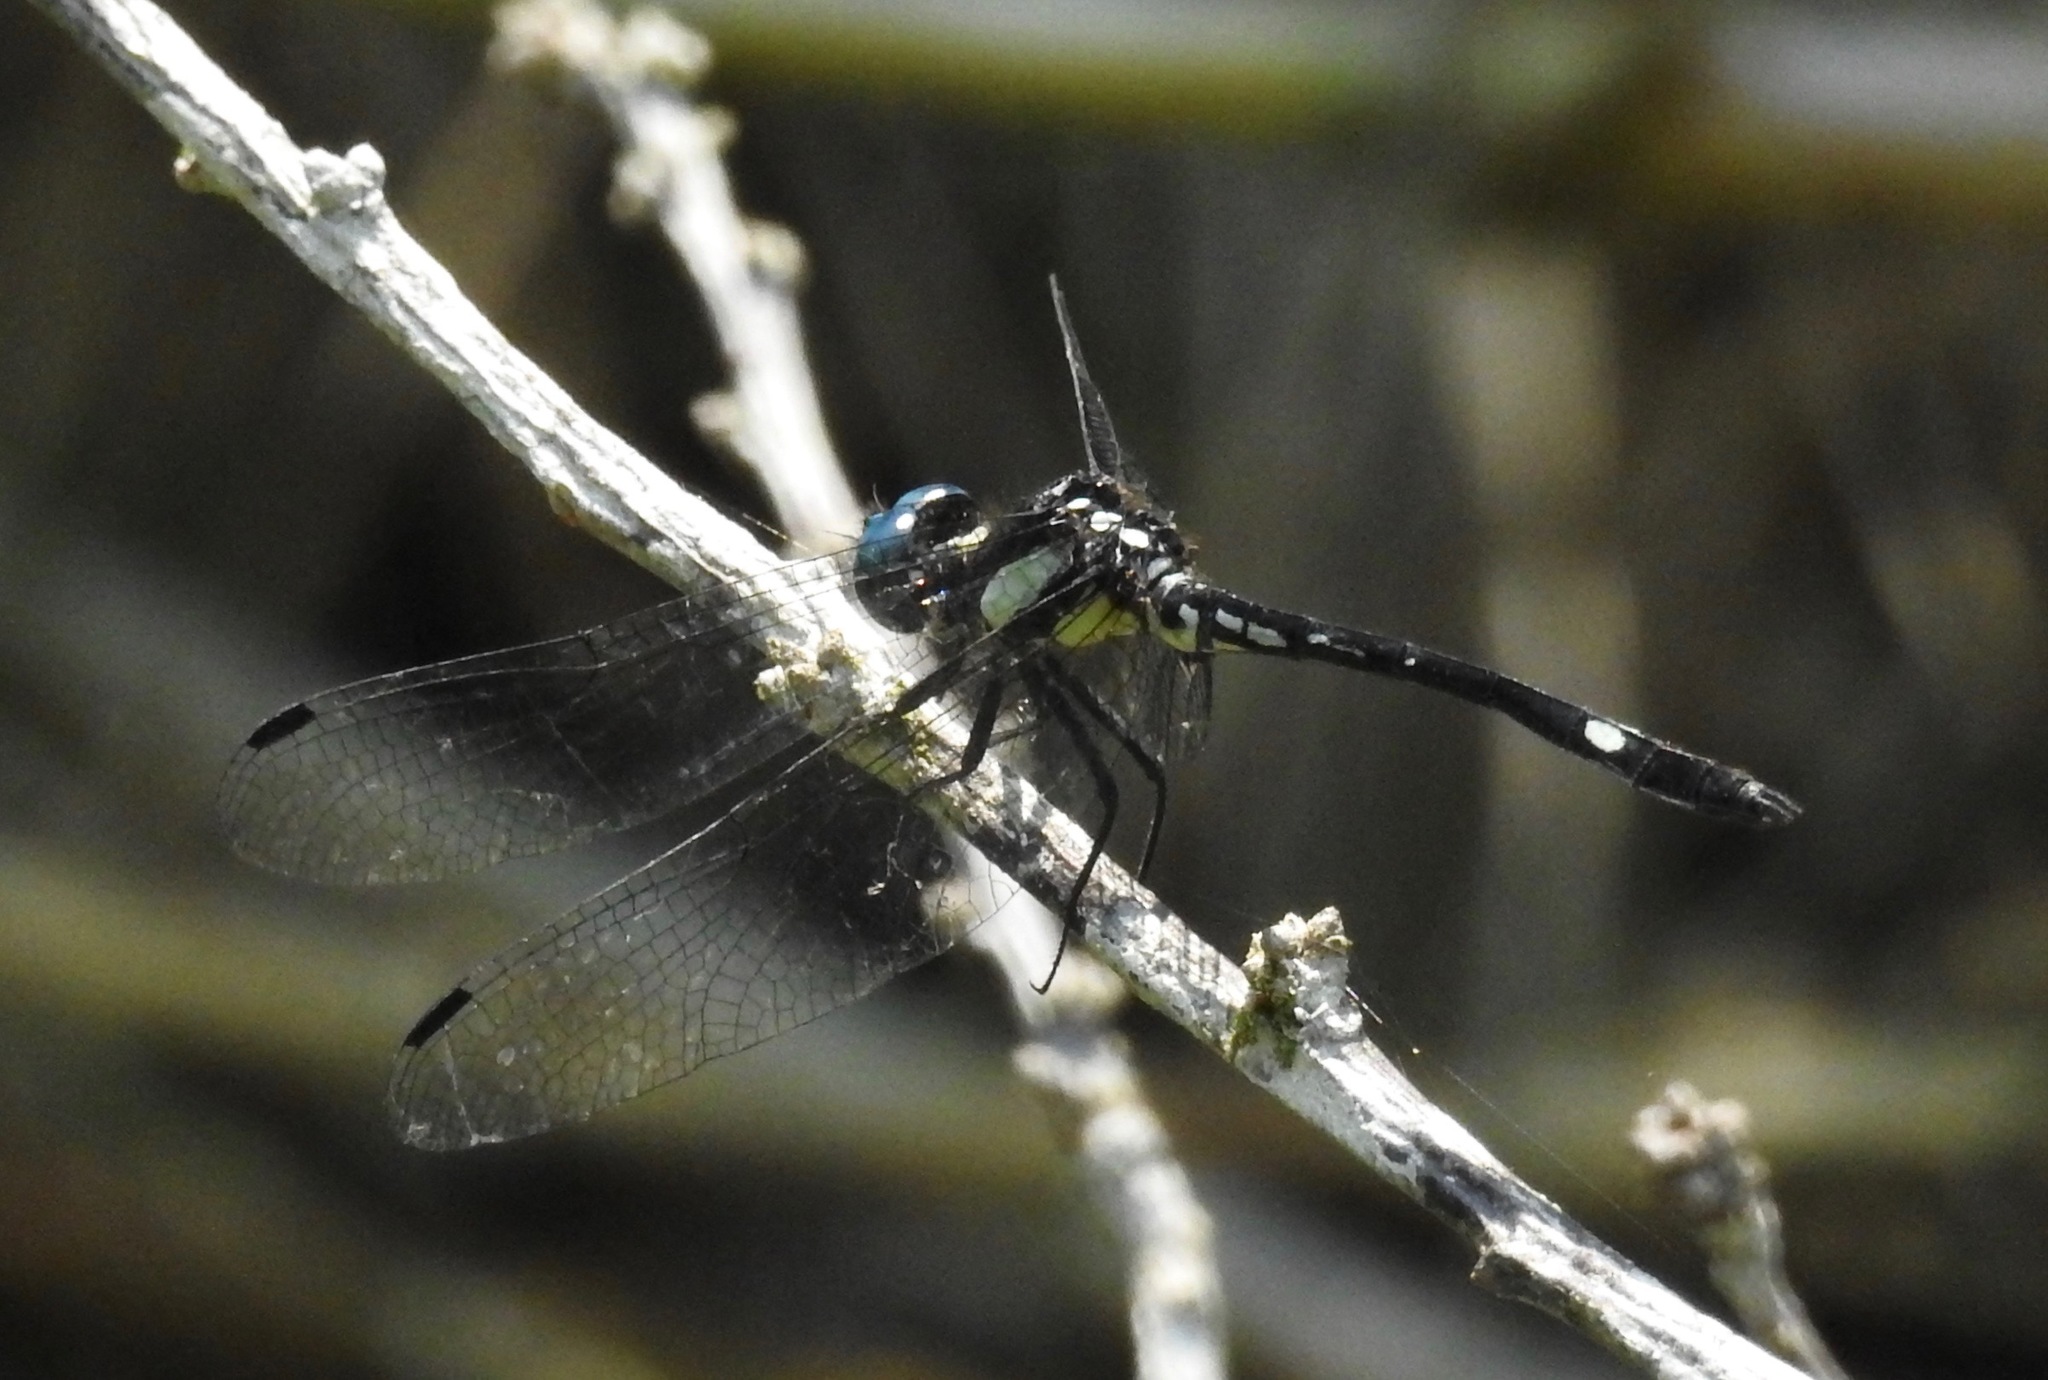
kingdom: Animalia
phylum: Arthropoda
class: Insecta
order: Odonata
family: Libellulidae
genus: Hylaeothemis
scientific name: Hylaeothemis clementia
